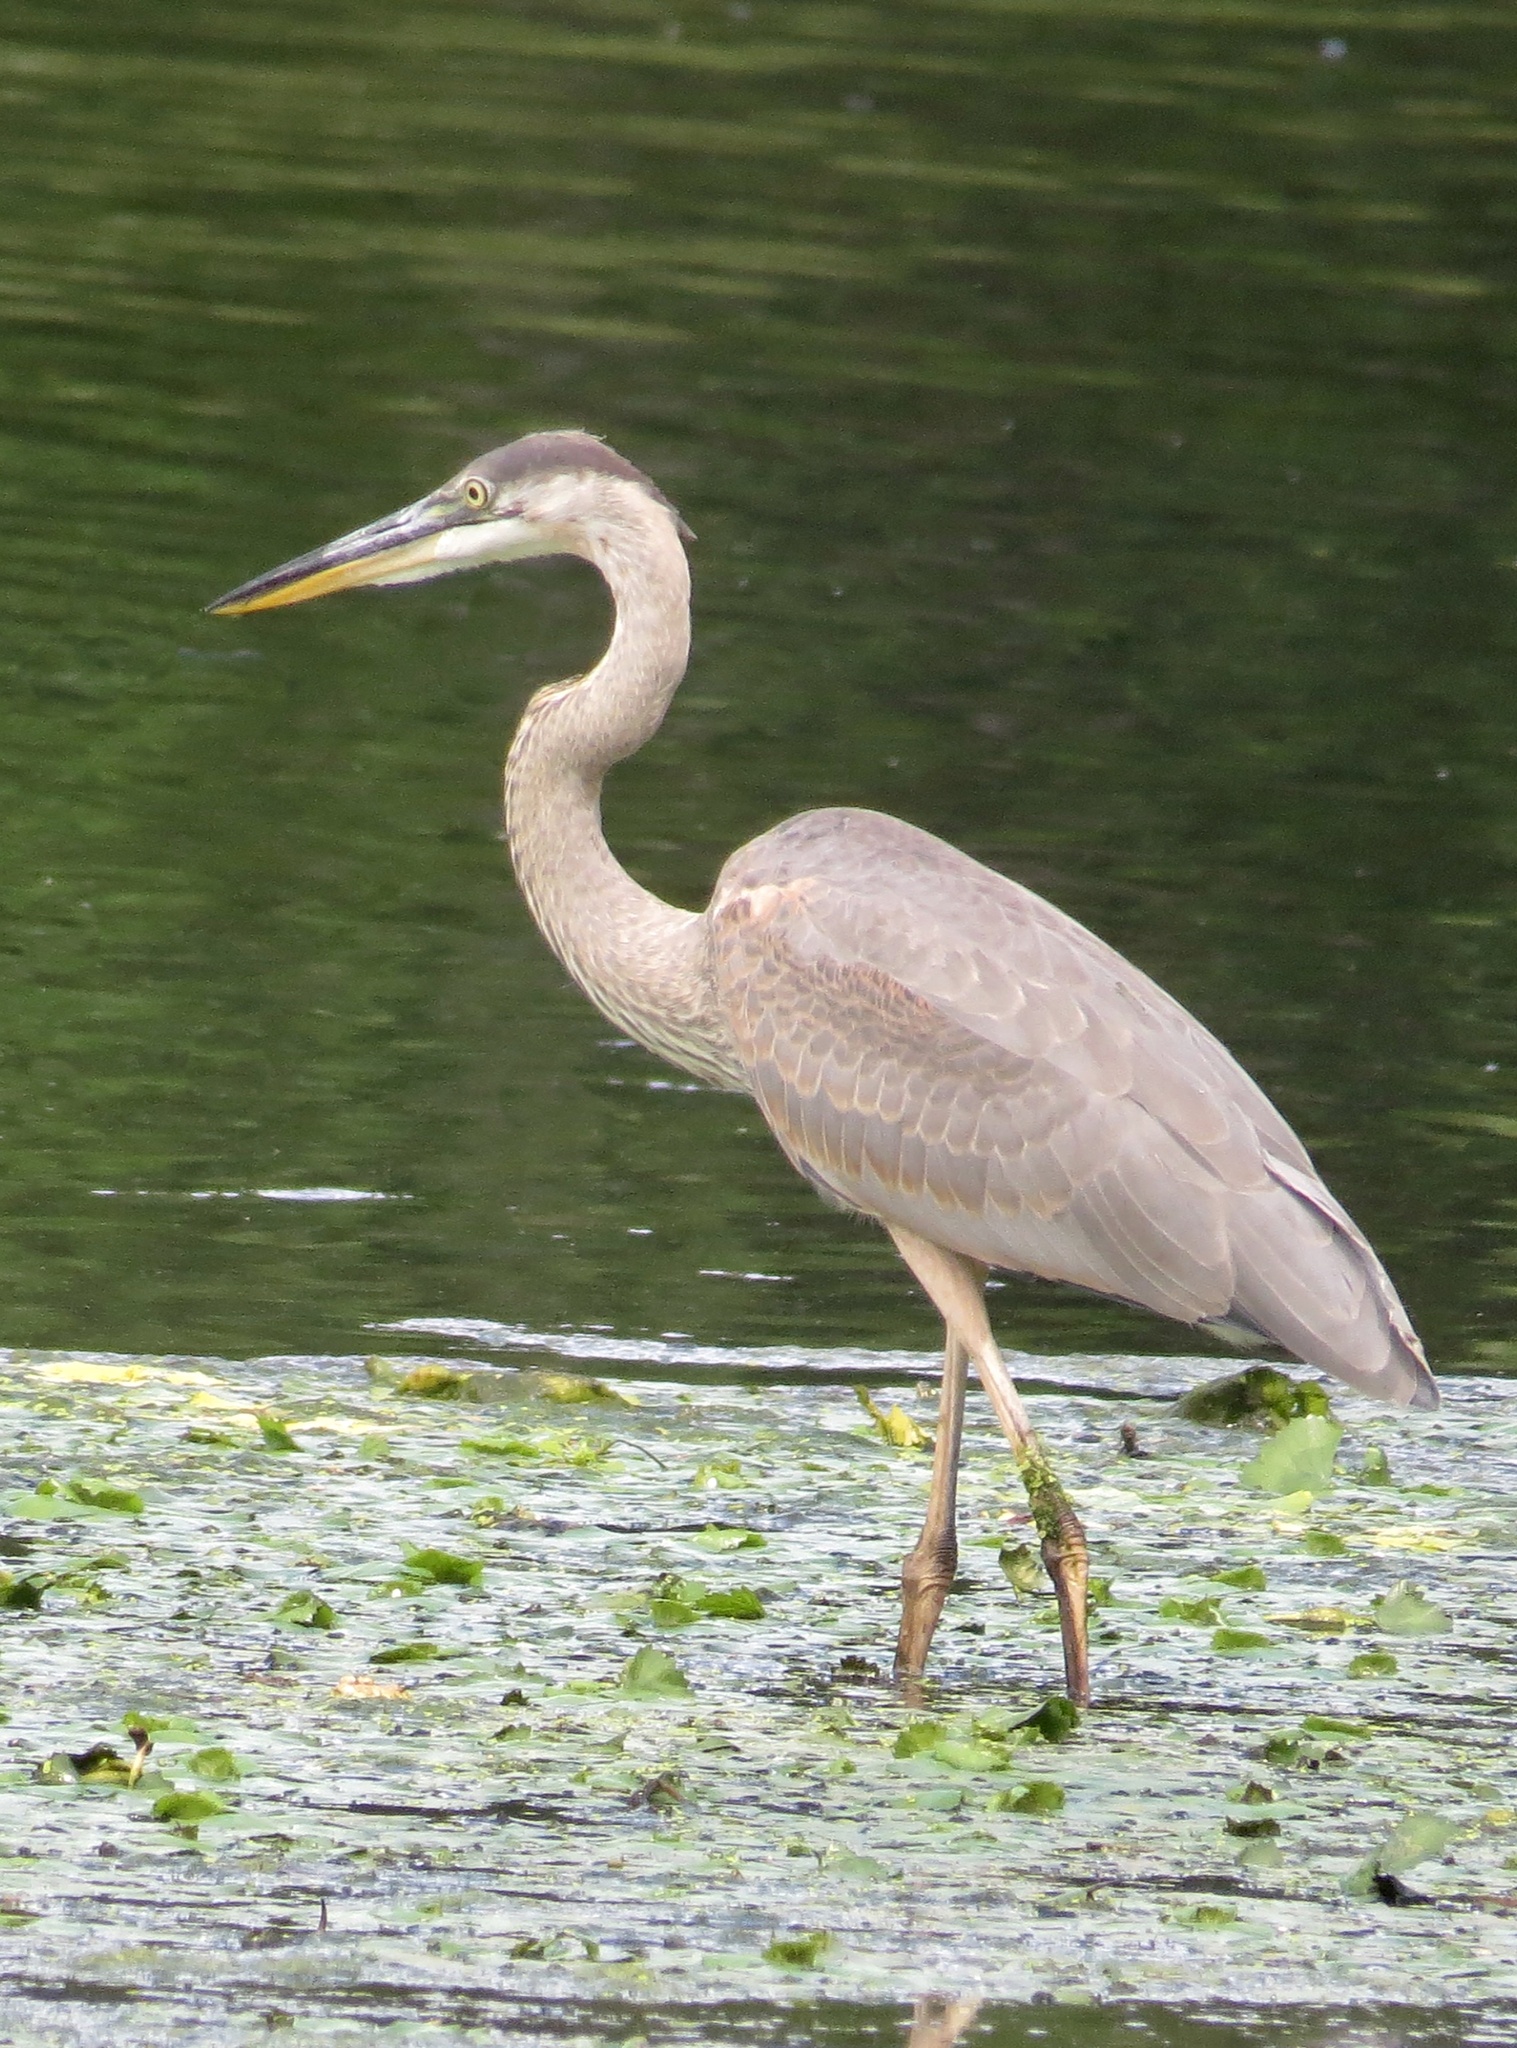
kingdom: Animalia
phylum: Chordata
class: Aves
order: Pelecaniformes
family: Ardeidae
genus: Ardea
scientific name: Ardea herodias
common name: Great blue heron
